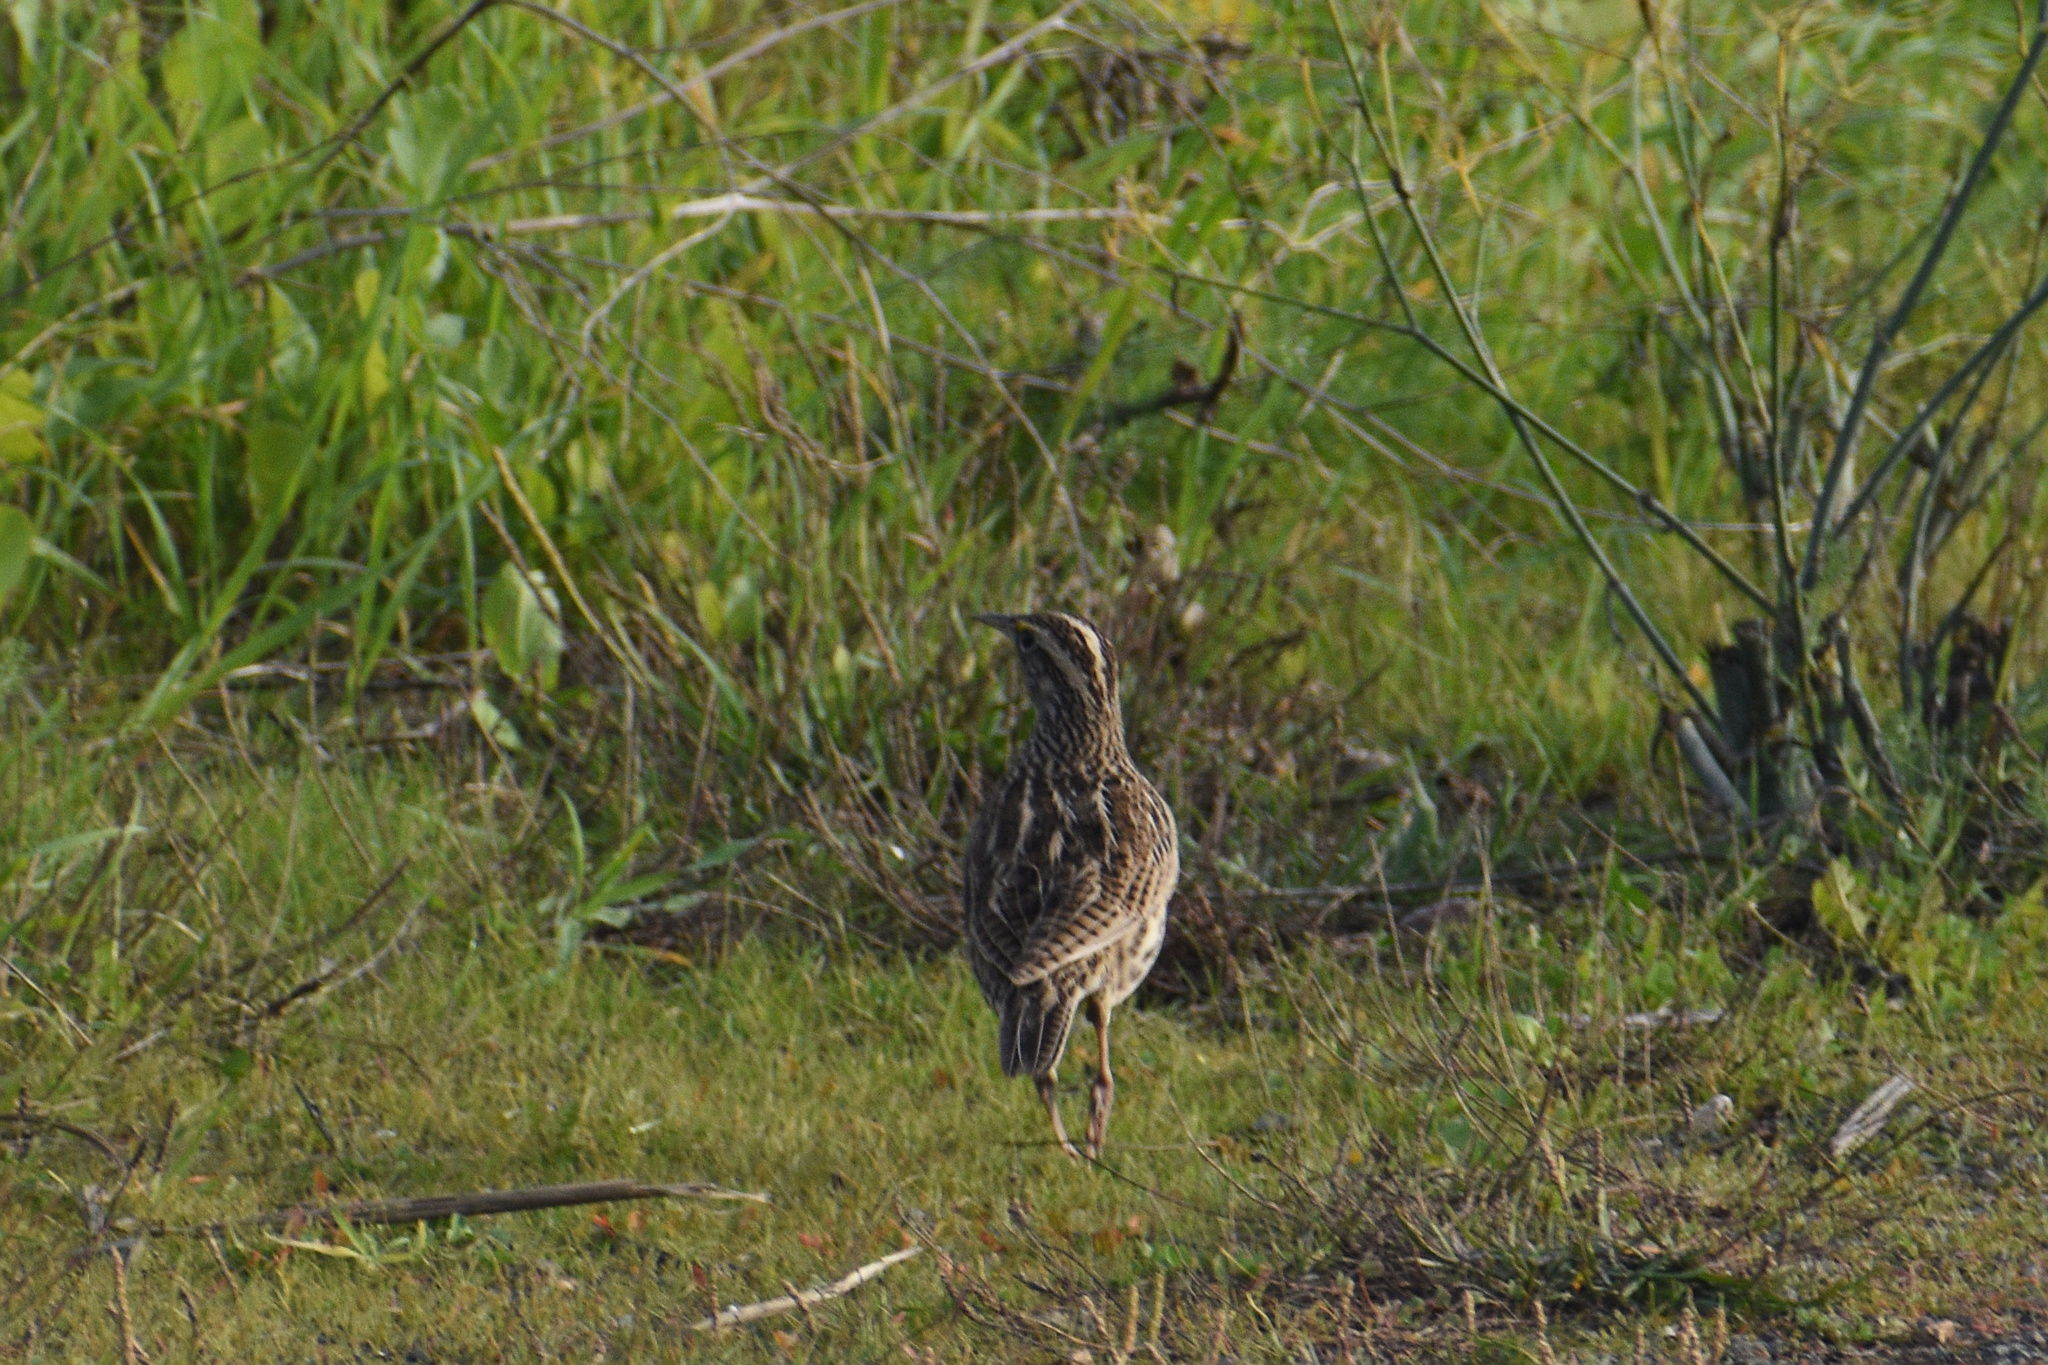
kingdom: Animalia
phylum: Chordata
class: Aves
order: Passeriformes
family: Icteridae
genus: Sturnella
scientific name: Sturnella neglecta
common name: Western meadowlark
